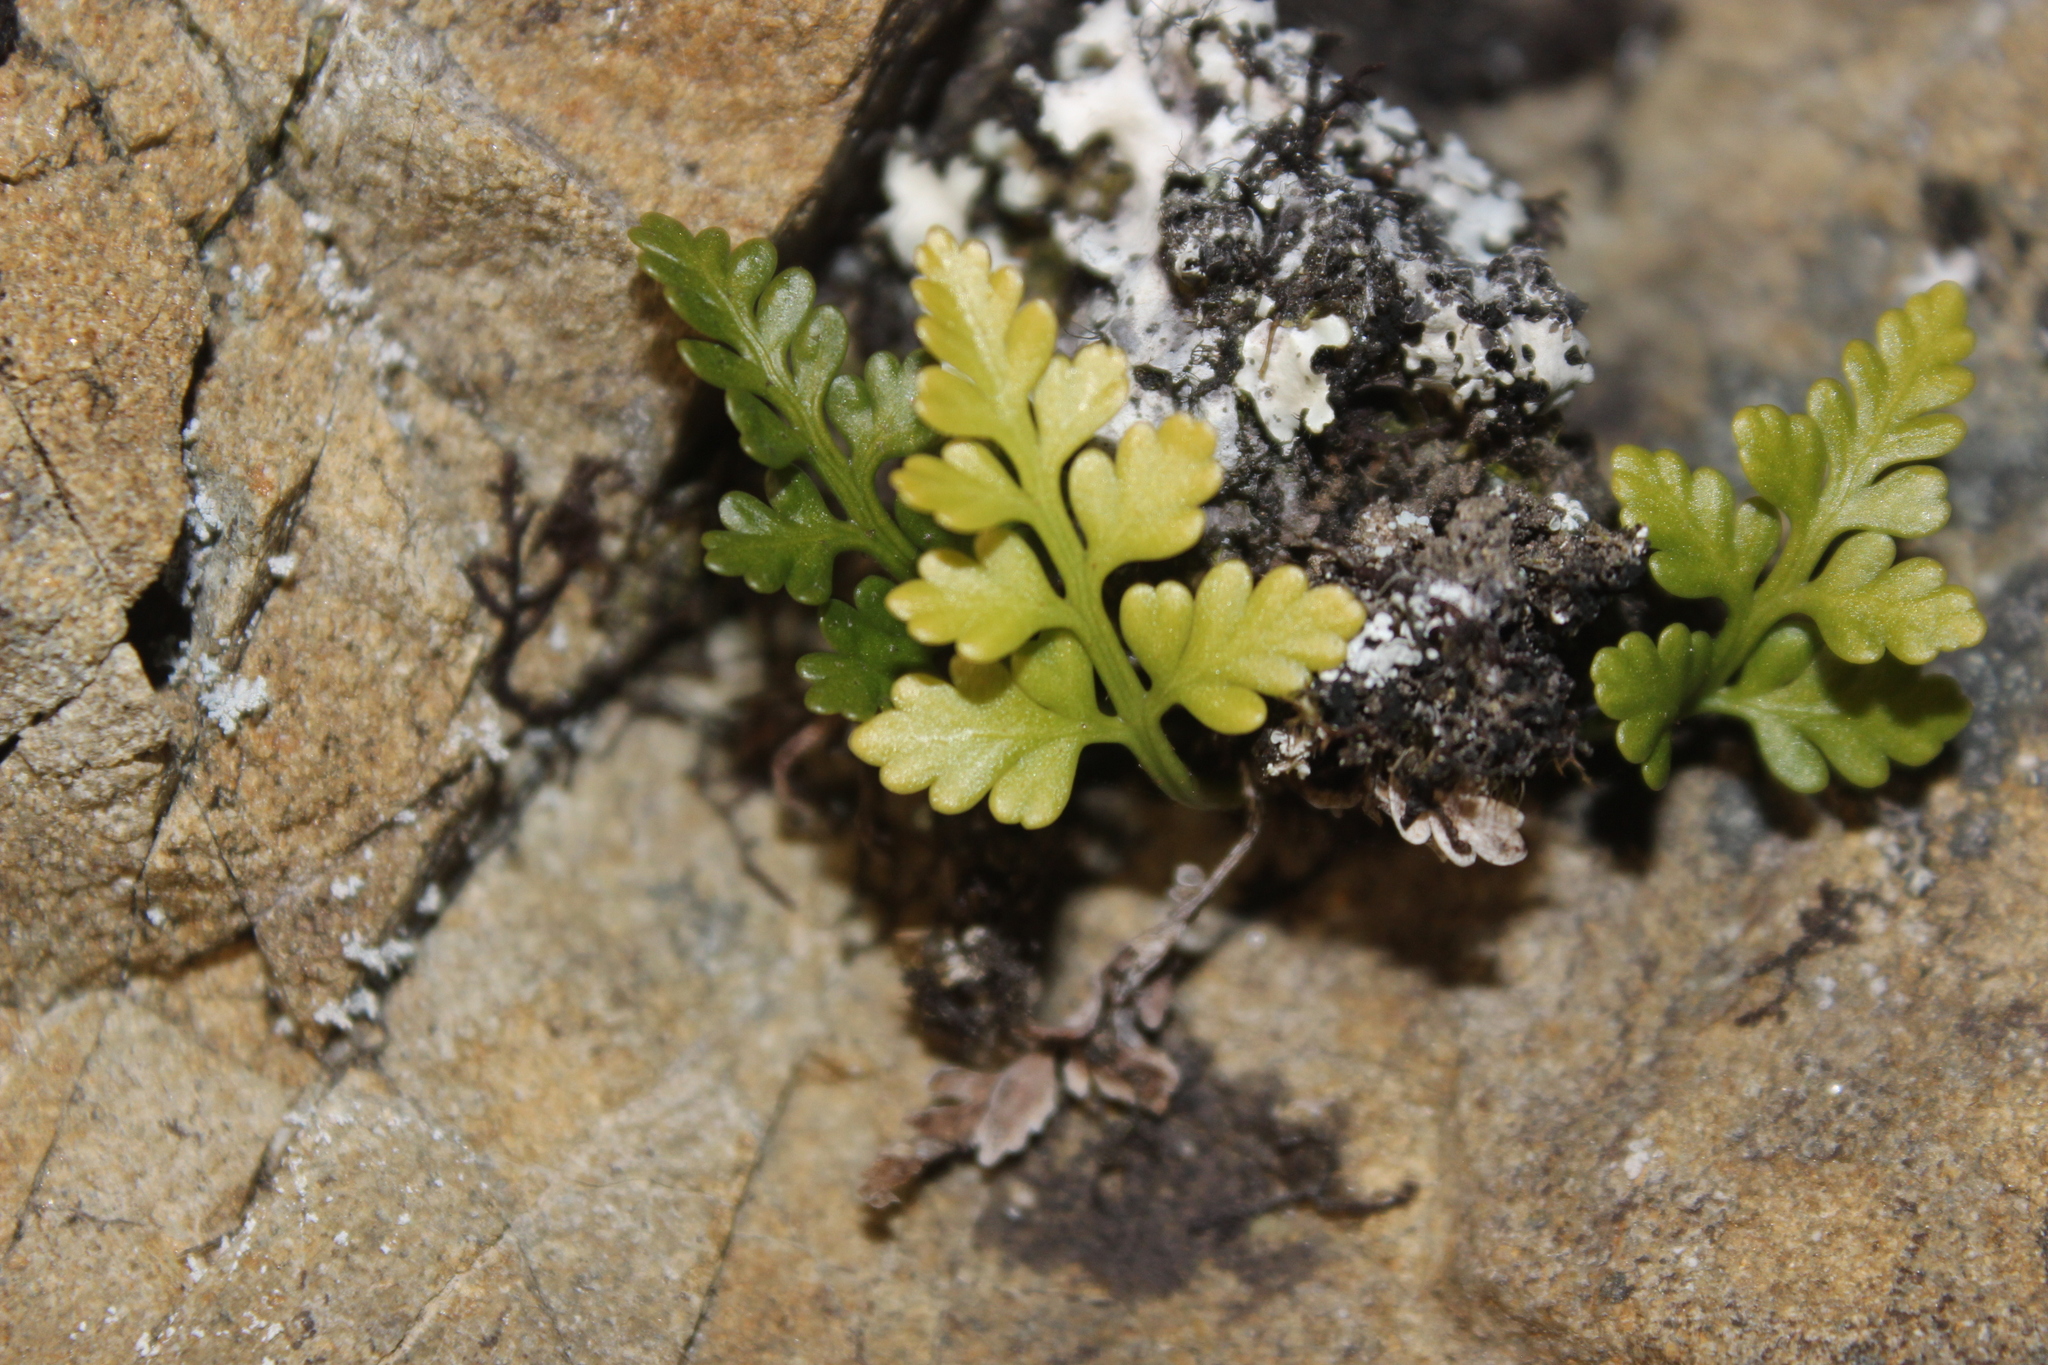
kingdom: Plantae
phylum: Tracheophyta
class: Polypodiopsida
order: Polypodiales
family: Aspleniaceae
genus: Asplenium
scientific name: Asplenium appendiculatum
